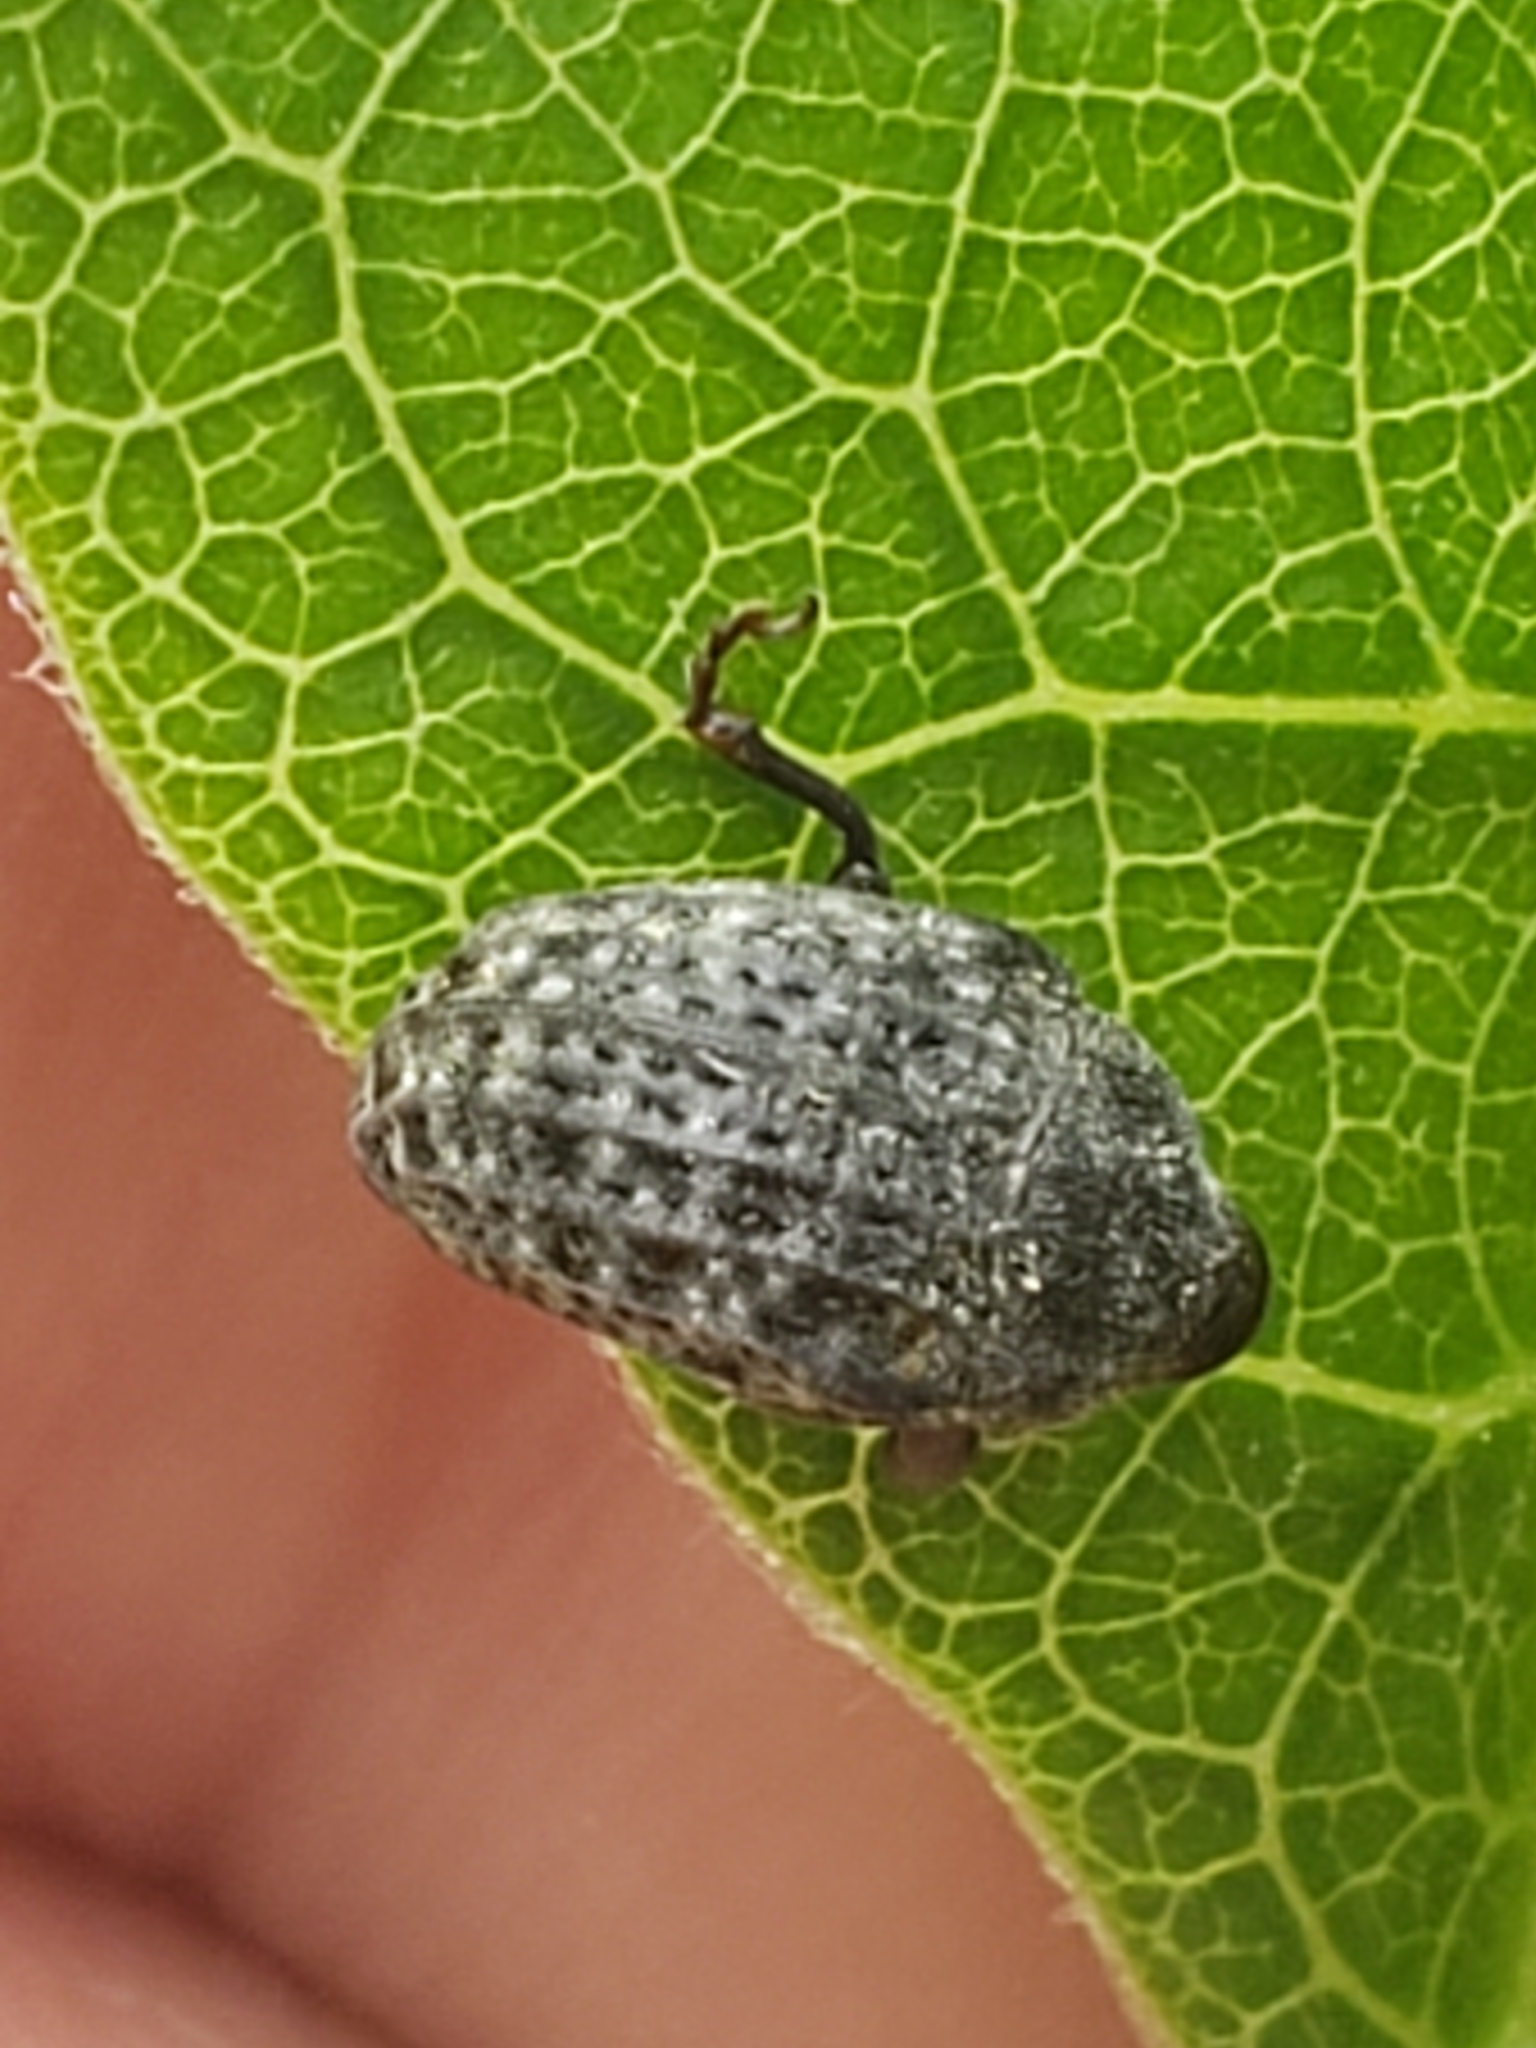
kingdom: Animalia
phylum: Arthropoda
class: Insecta
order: Coleoptera
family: Curculionidae
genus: Rhyssomatus
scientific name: Rhyssomatus lineaticollis
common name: Milkweed stem weevil
